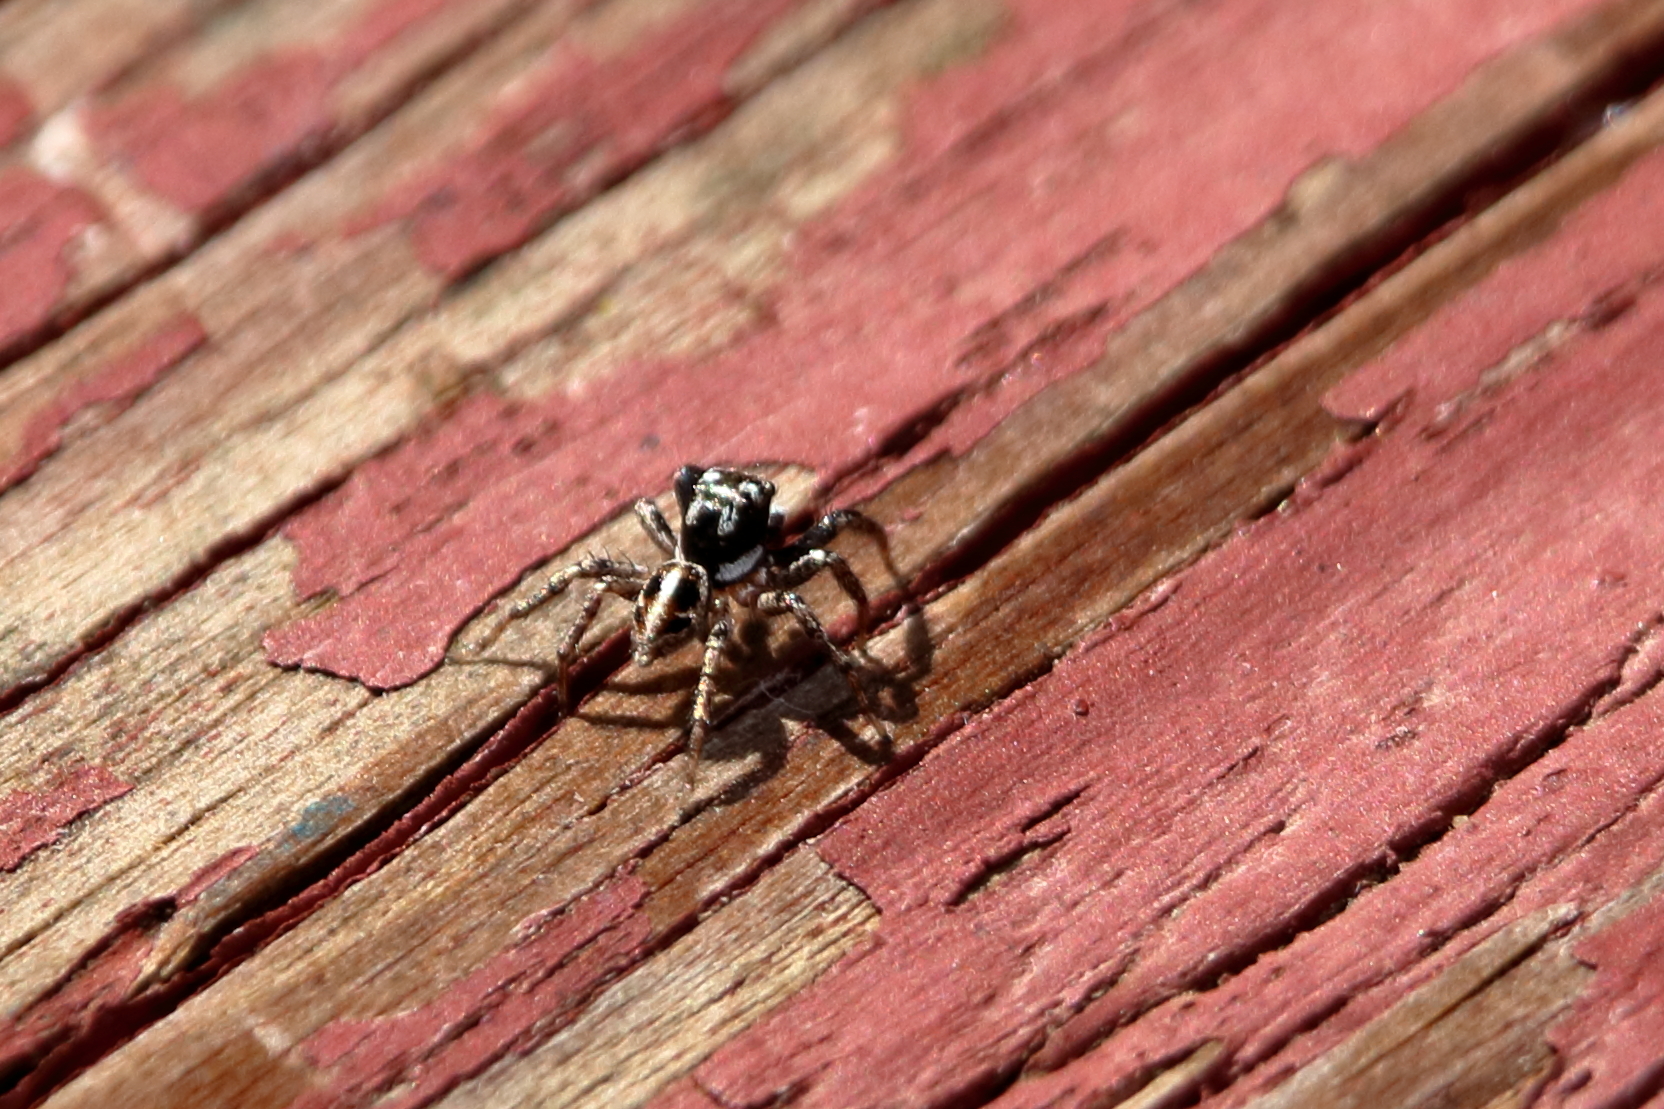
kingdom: Animalia
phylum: Arthropoda
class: Arachnida
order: Araneae
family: Salticidae
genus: Anasaitis
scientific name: Anasaitis canosa
